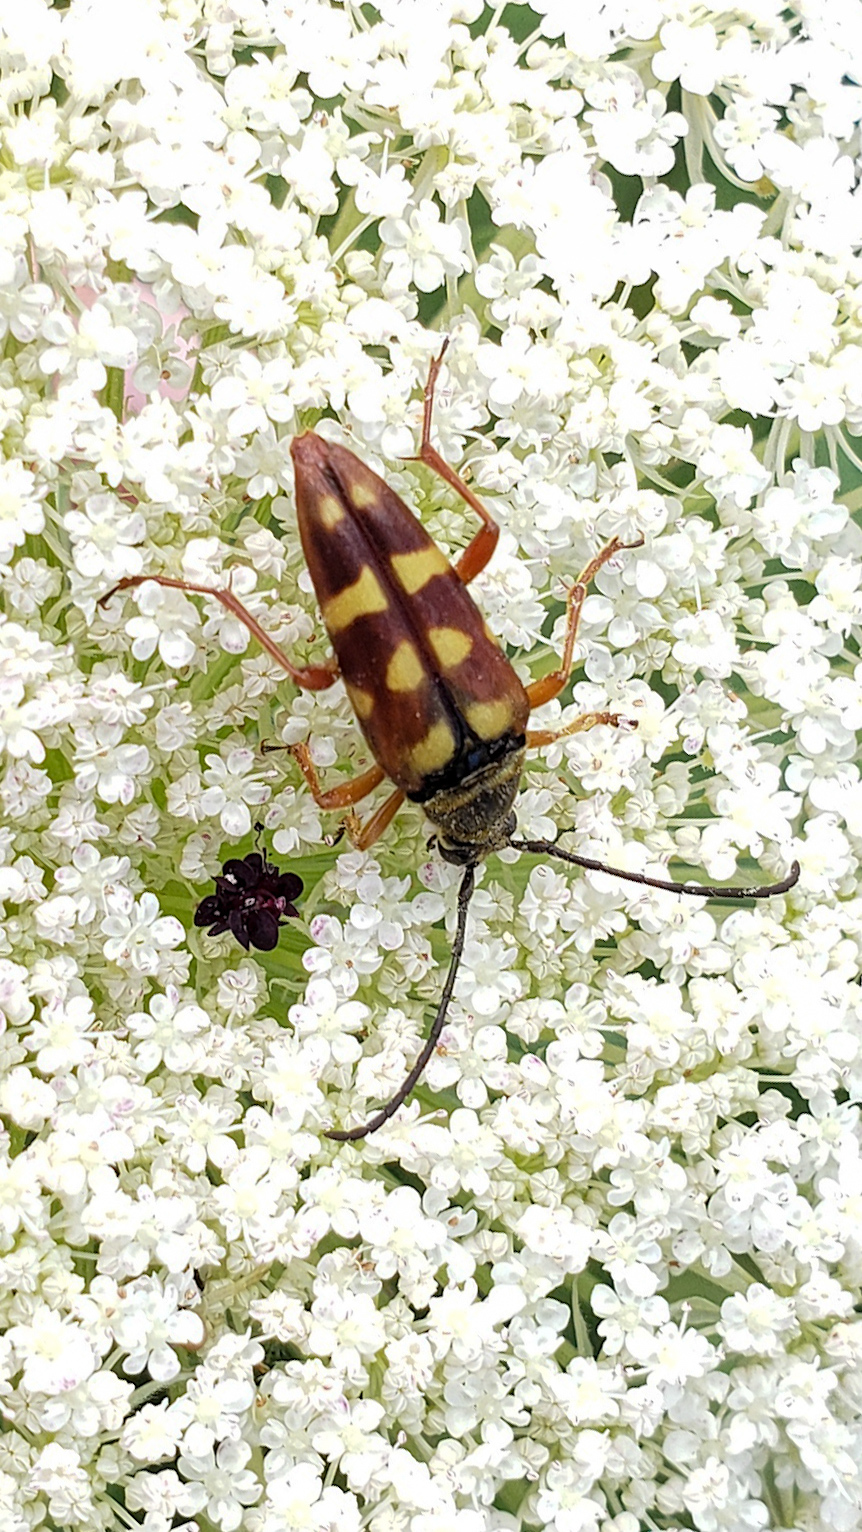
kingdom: Animalia
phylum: Arthropoda
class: Insecta
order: Coleoptera
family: Cerambycidae
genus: Typocerus
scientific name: Typocerus velutinus
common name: Banded longhorn beetle
